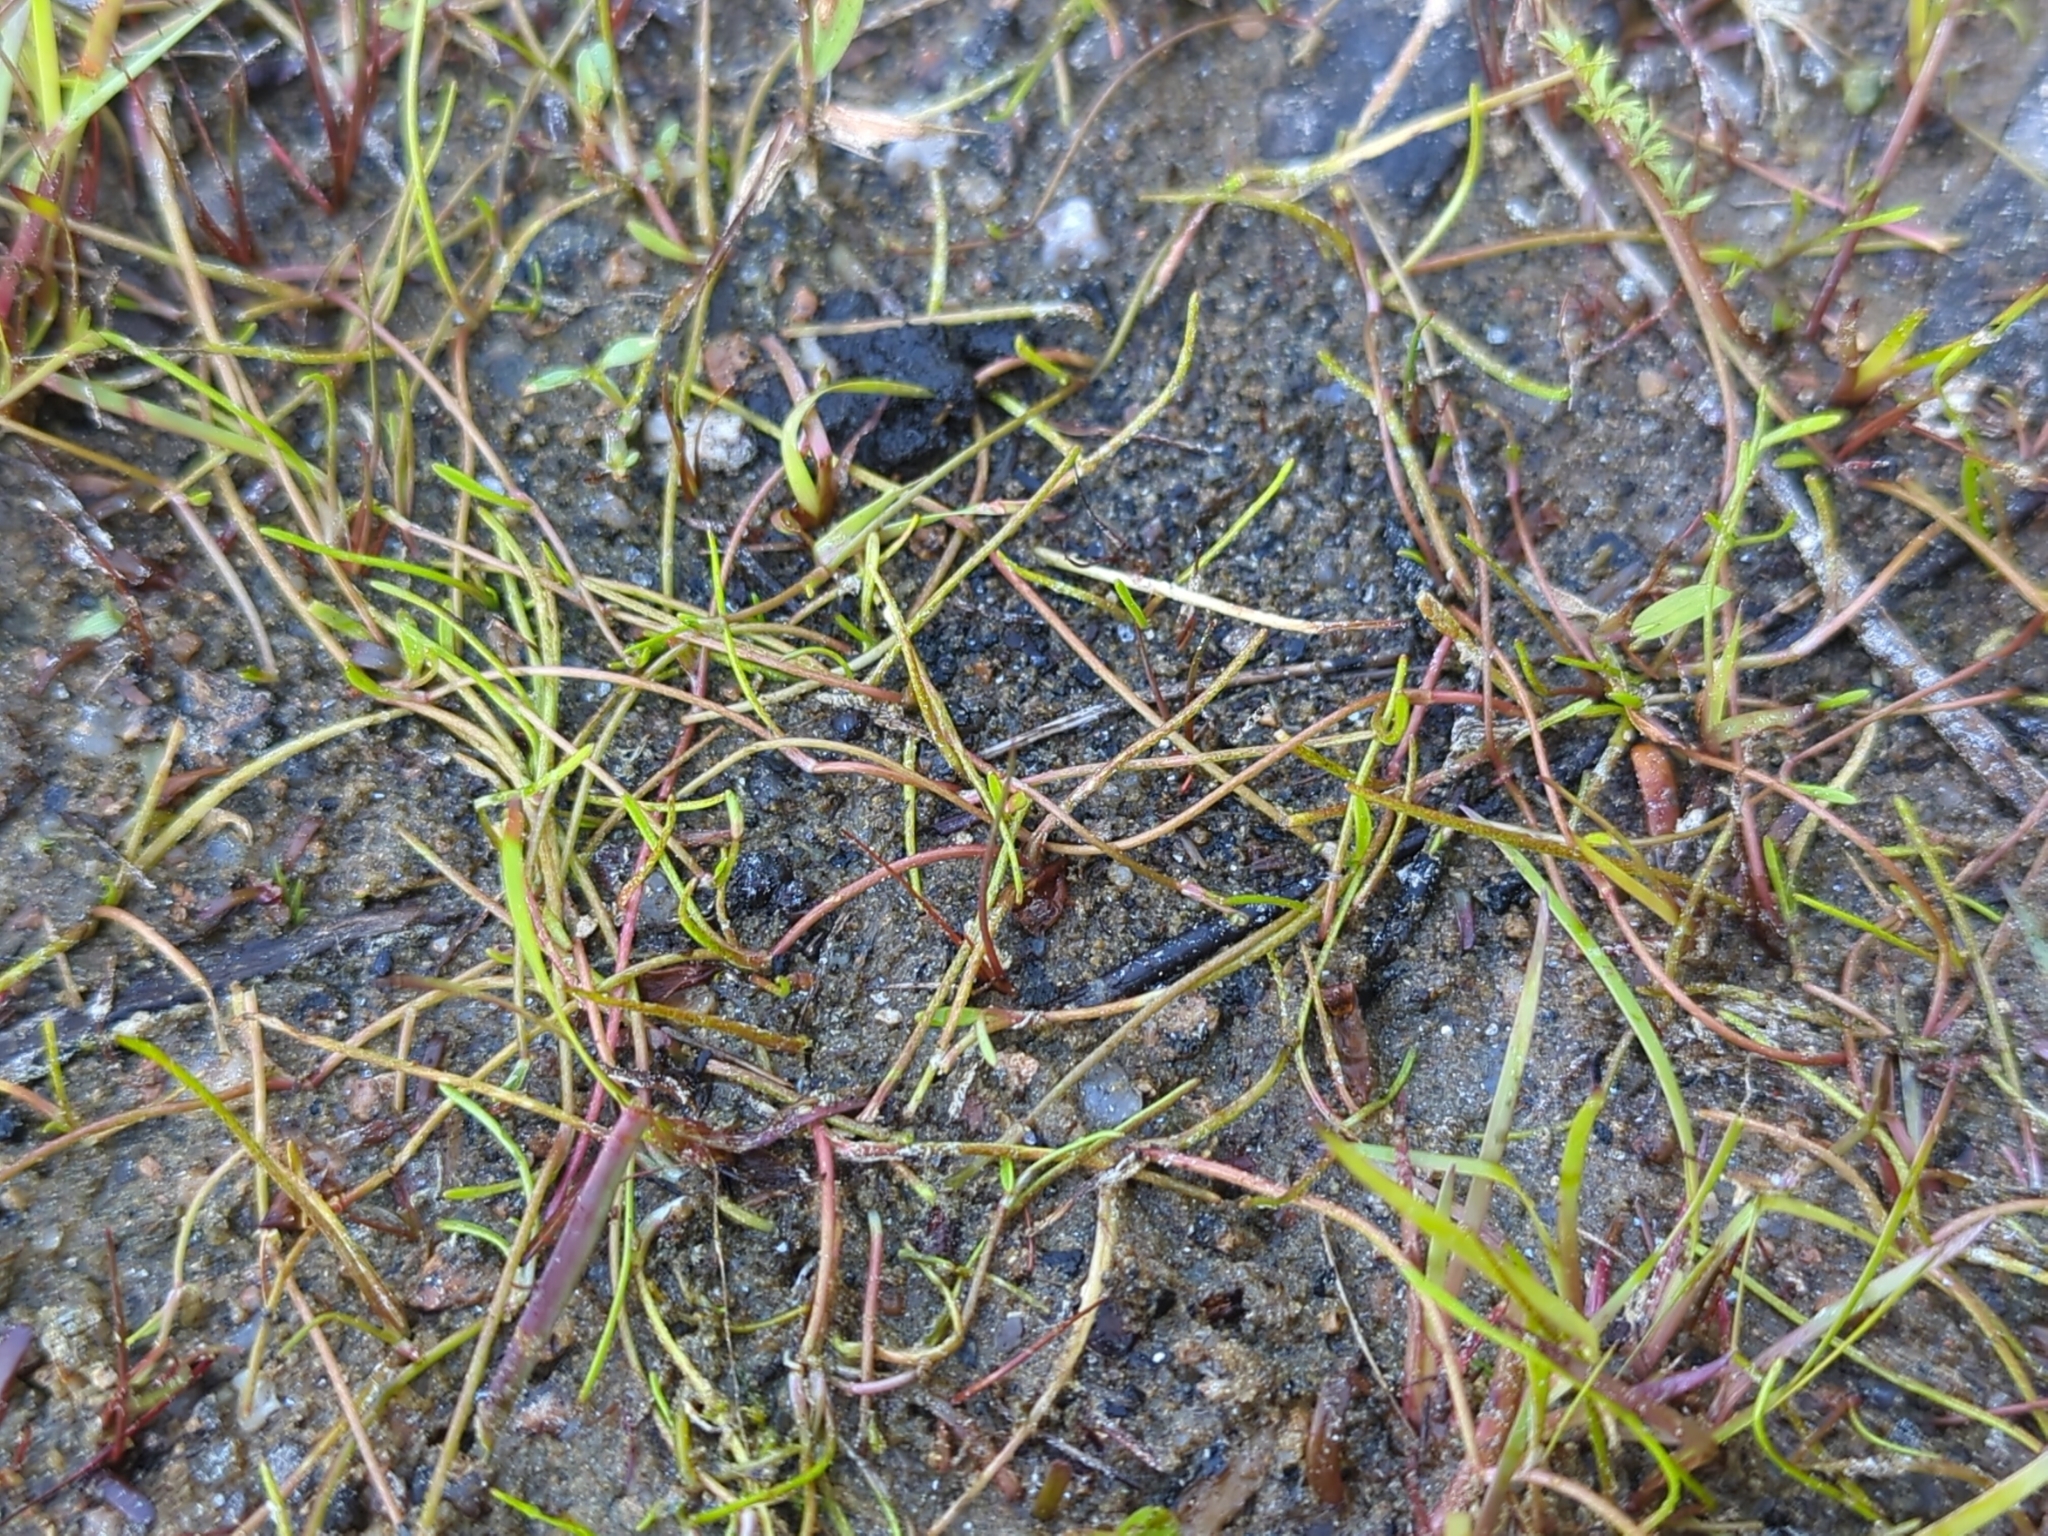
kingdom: Plantae
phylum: Tracheophyta
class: Magnoliopsida
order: Ranunculales
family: Ranunculaceae
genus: Ranunculus
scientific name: Ranunculus reptans
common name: Creeping spearwort
